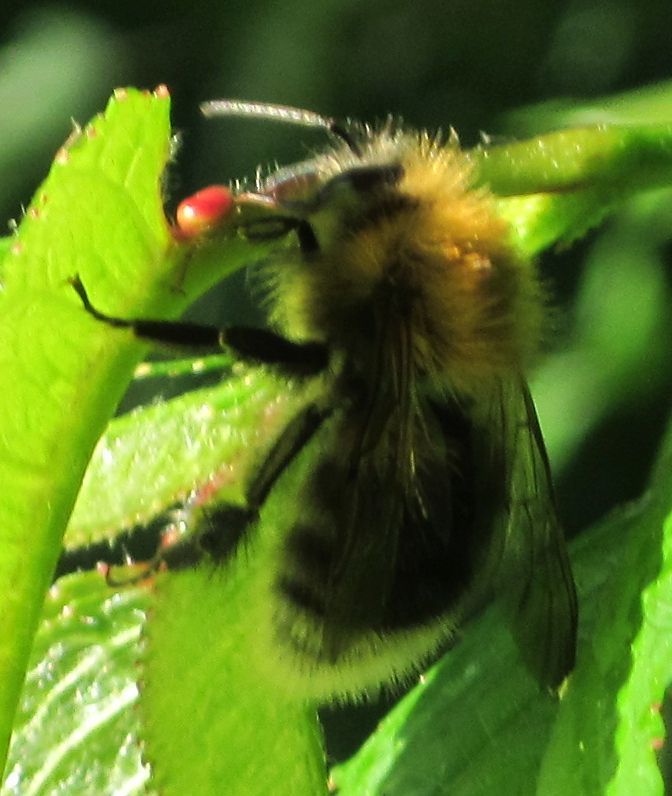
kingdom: Animalia
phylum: Arthropoda
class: Insecta
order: Hymenoptera
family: Apidae
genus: Bombus
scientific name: Bombus hypnorum
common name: New garden bumblebee
